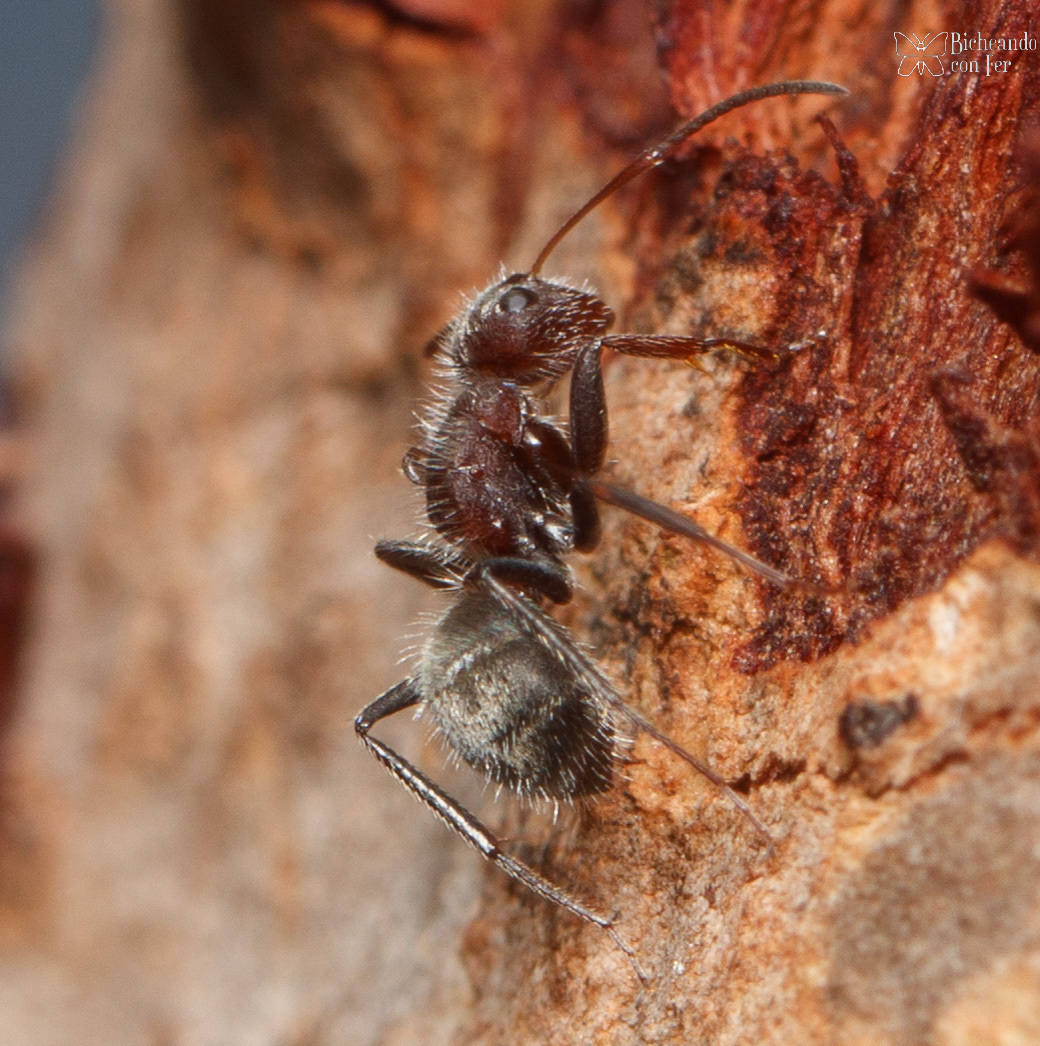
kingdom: Animalia
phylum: Arthropoda
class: Insecta
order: Hymenoptera
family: Formicidae
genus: Camponotus
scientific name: Camponotus planatus
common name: Compact carpenter ant
